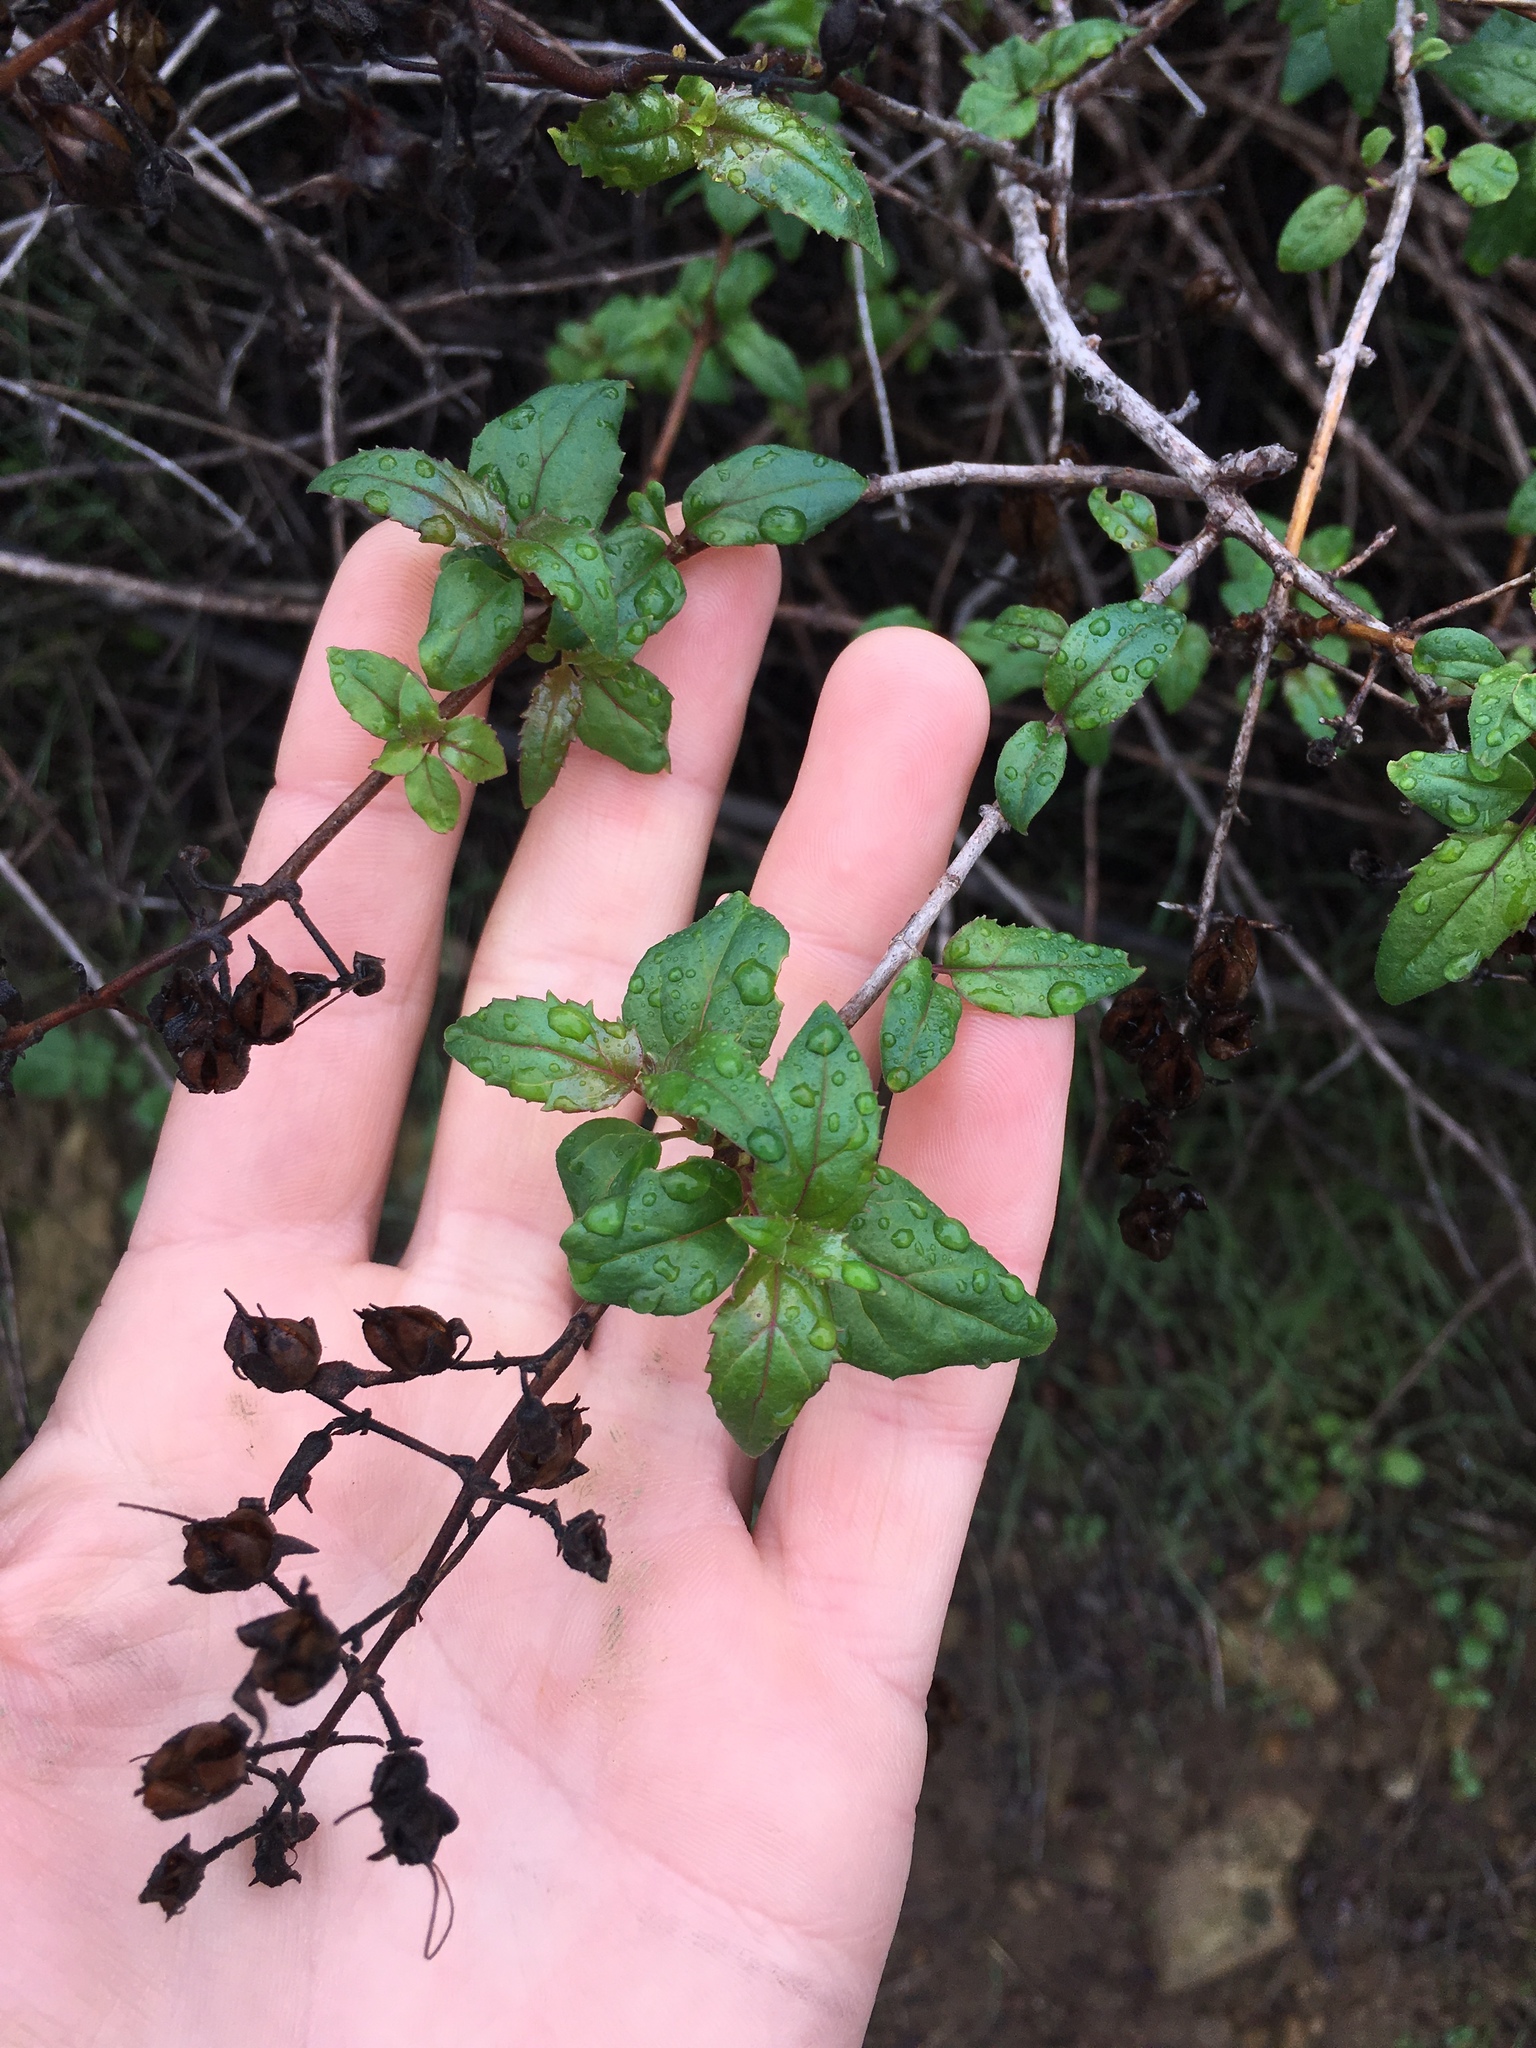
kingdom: Plantae
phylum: Tracheophyta
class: Magnoliopsida
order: Lamiales
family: Plantaginaceae
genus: Keckiella
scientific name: Keckiella cordifolia
